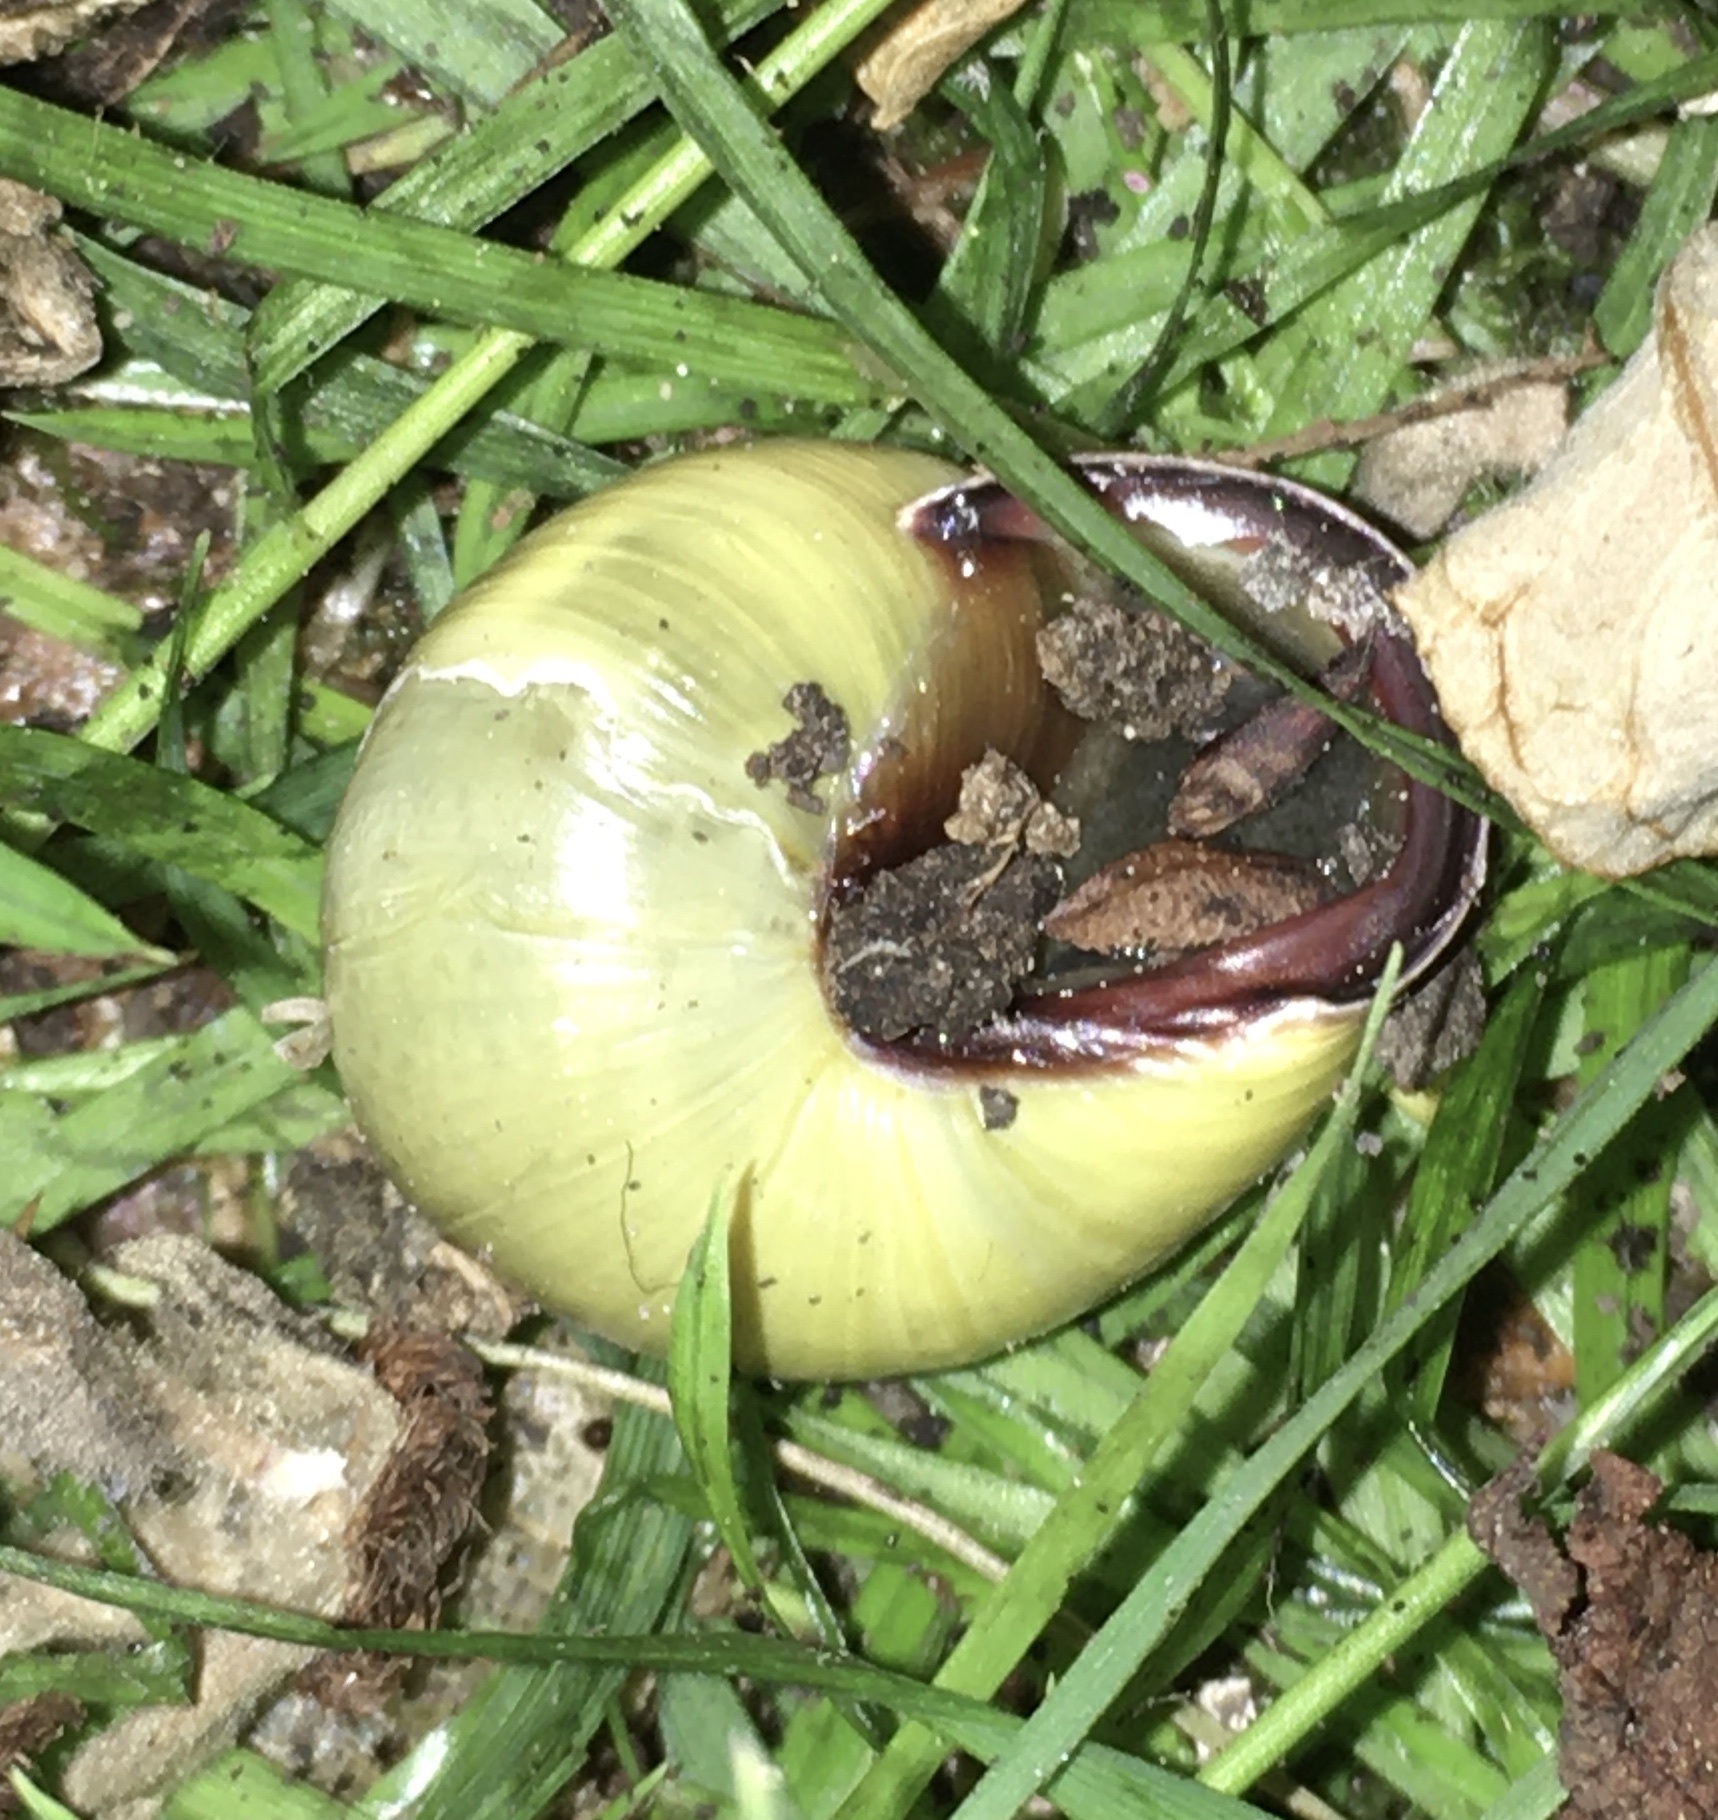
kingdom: Animalia
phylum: Mollusca
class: Gastropoda
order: Stylommatophora
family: Helicidae
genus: Cepaea
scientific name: Cepaea nemoralis
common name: Grovesnail
